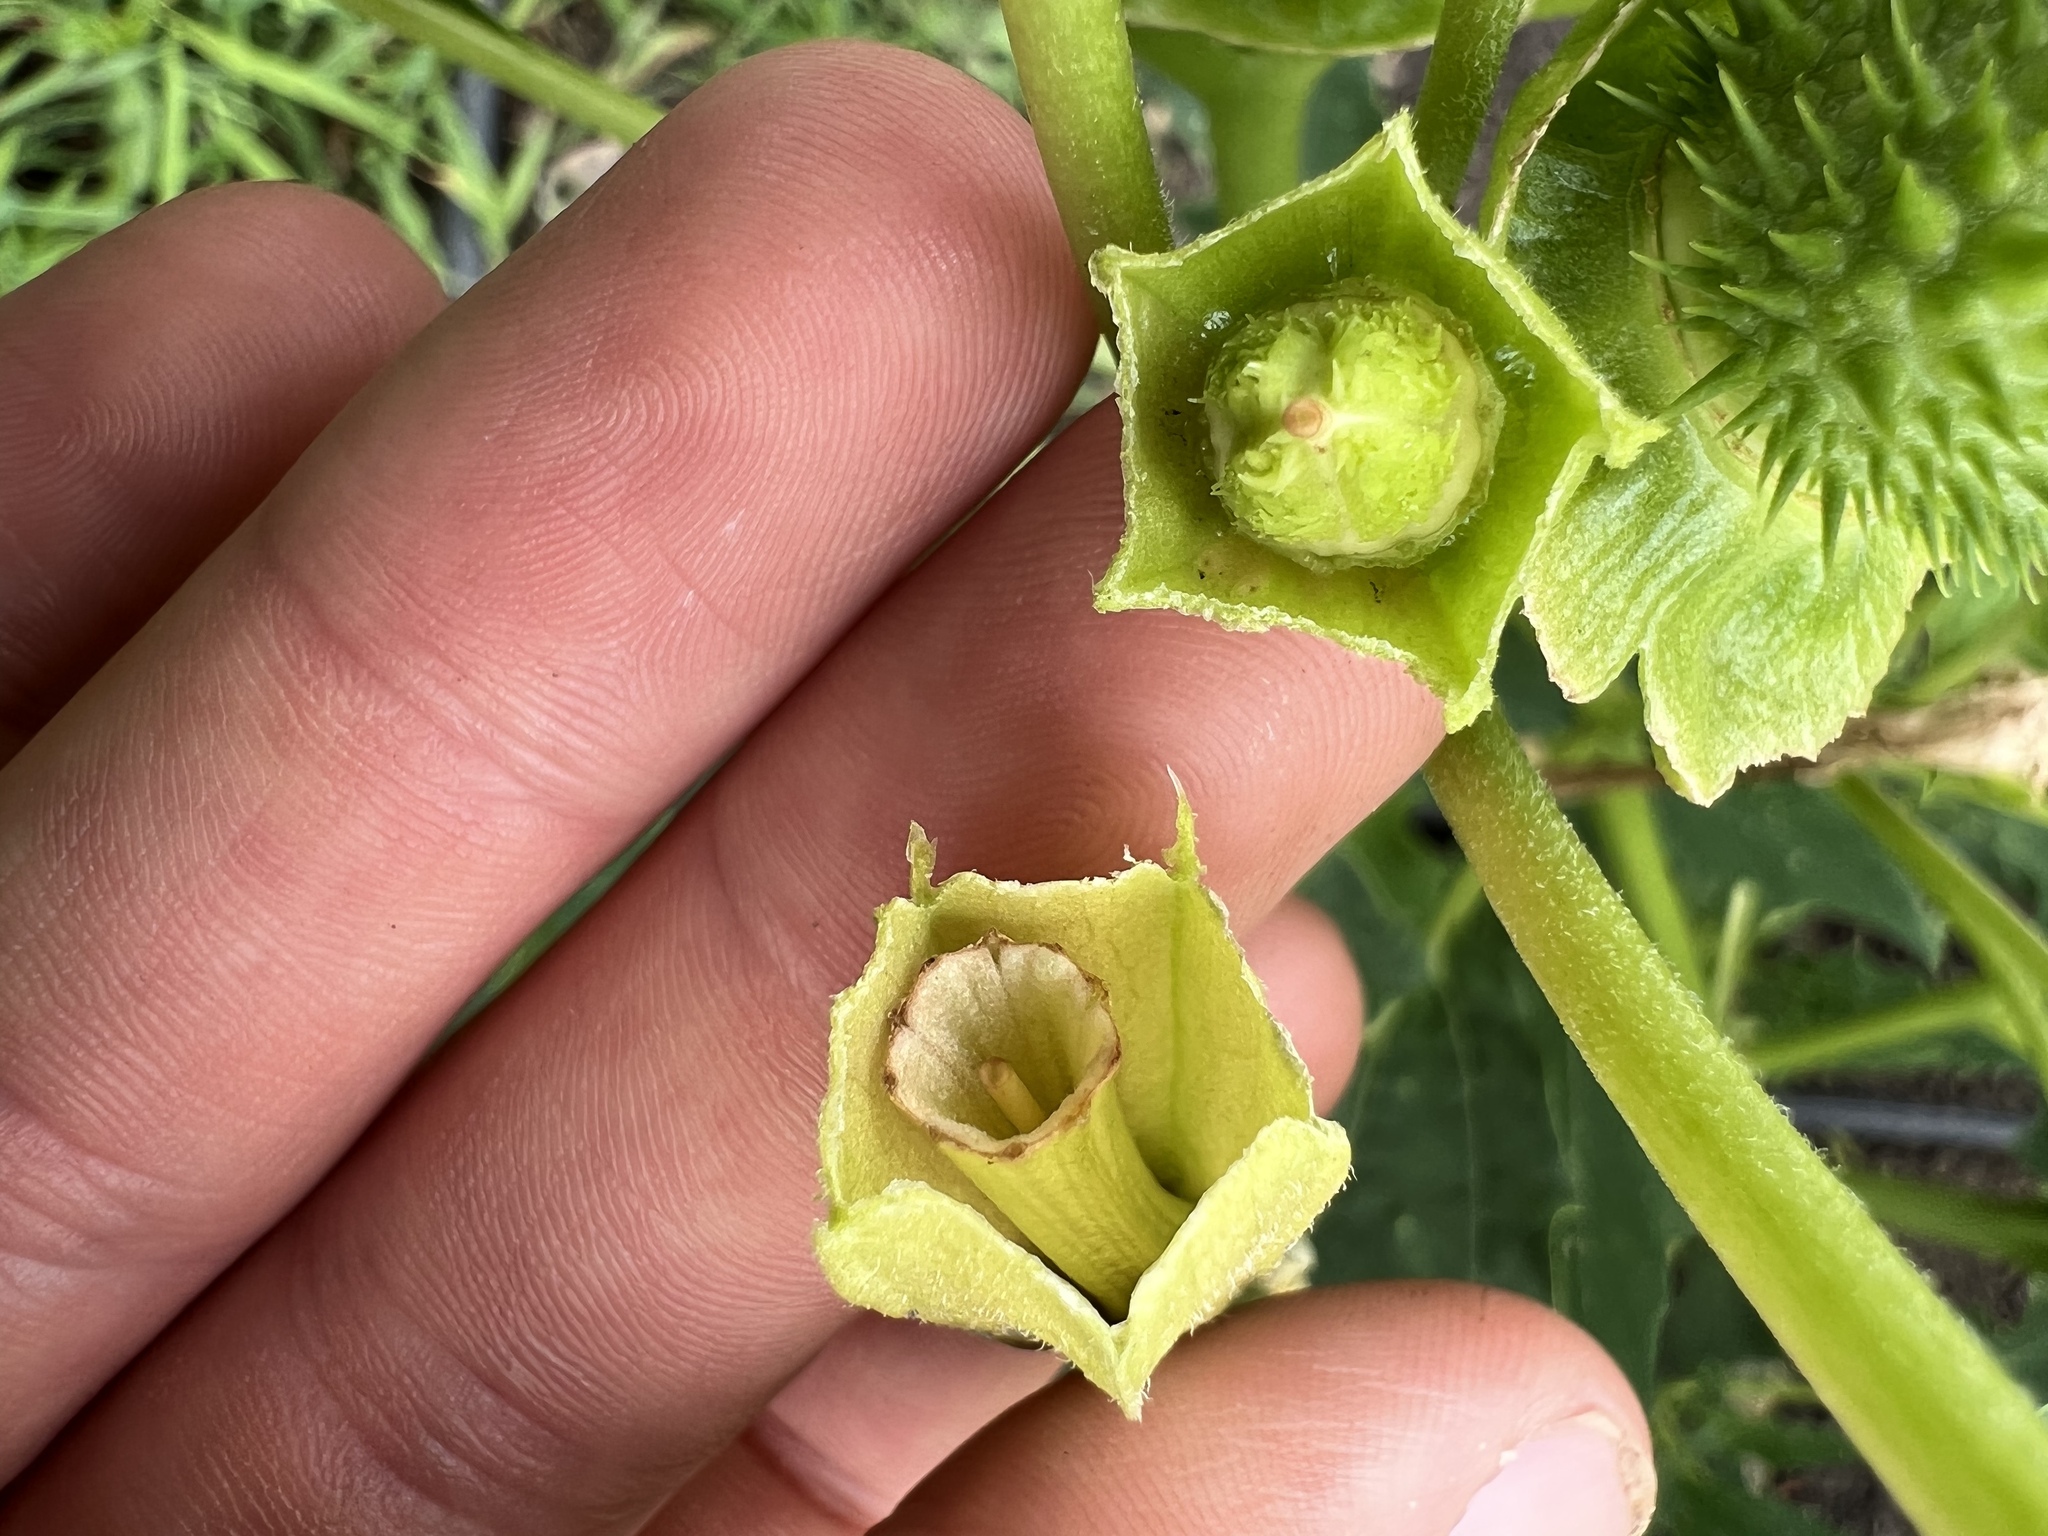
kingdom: Plantae
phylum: Tracheophyta
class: Magnoliopsida
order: Solanales
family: Solanaceae
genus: Datura
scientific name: Datura stramonium
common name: Thorn-apple
